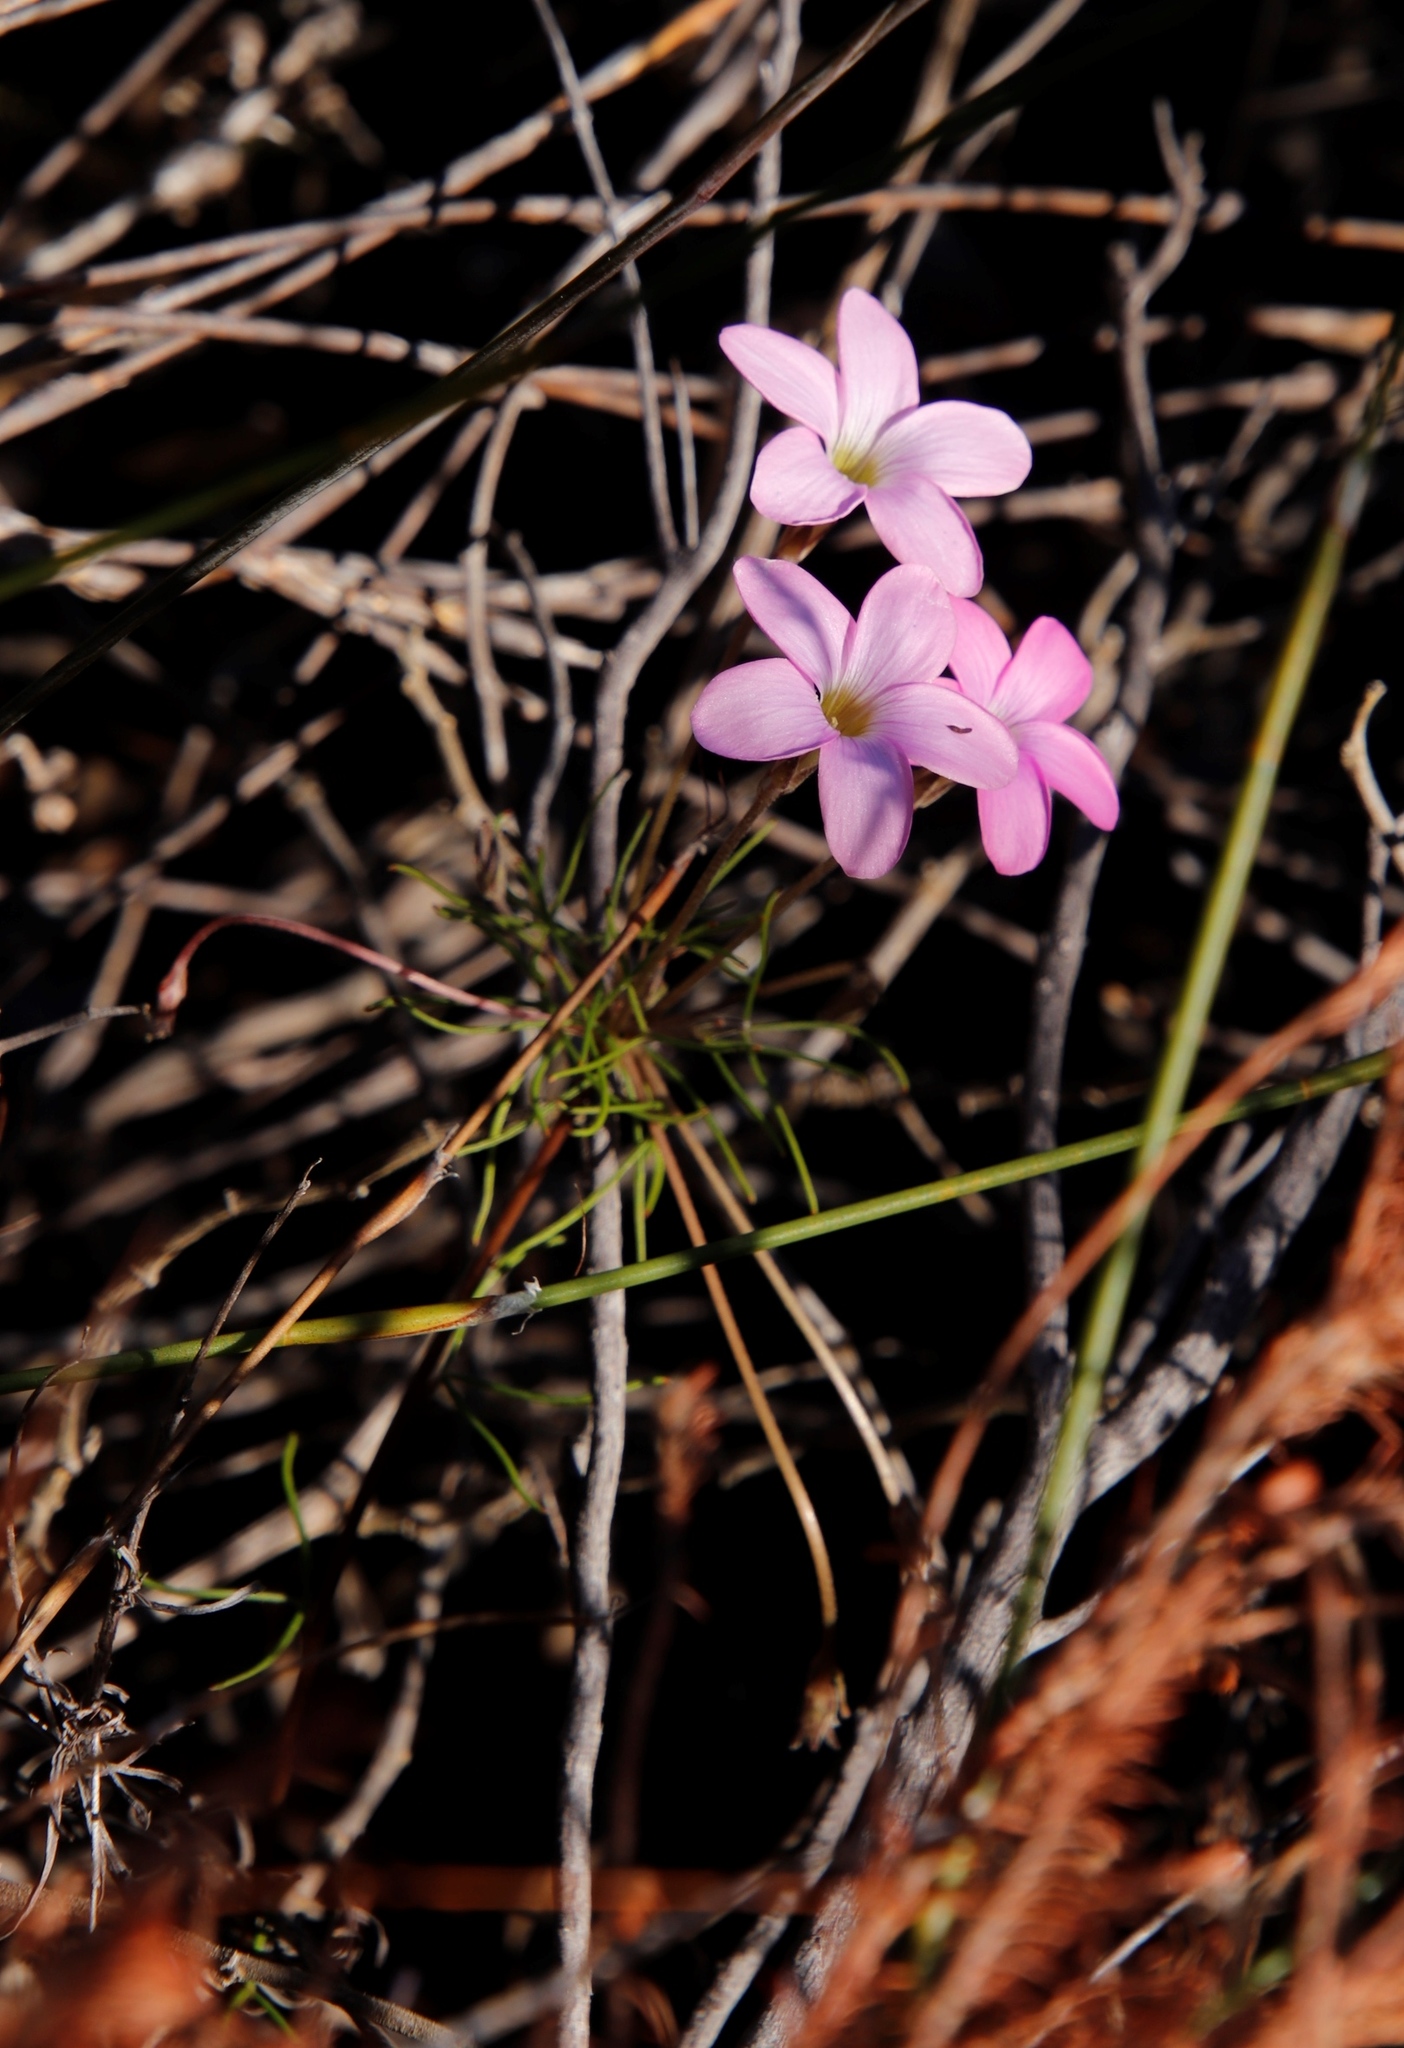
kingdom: Plantae
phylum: Tracheophyta
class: Magnoliopsida
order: Oxalidales
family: Oxalidaceae
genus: Oxalis
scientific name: Oxalis polyphylla
